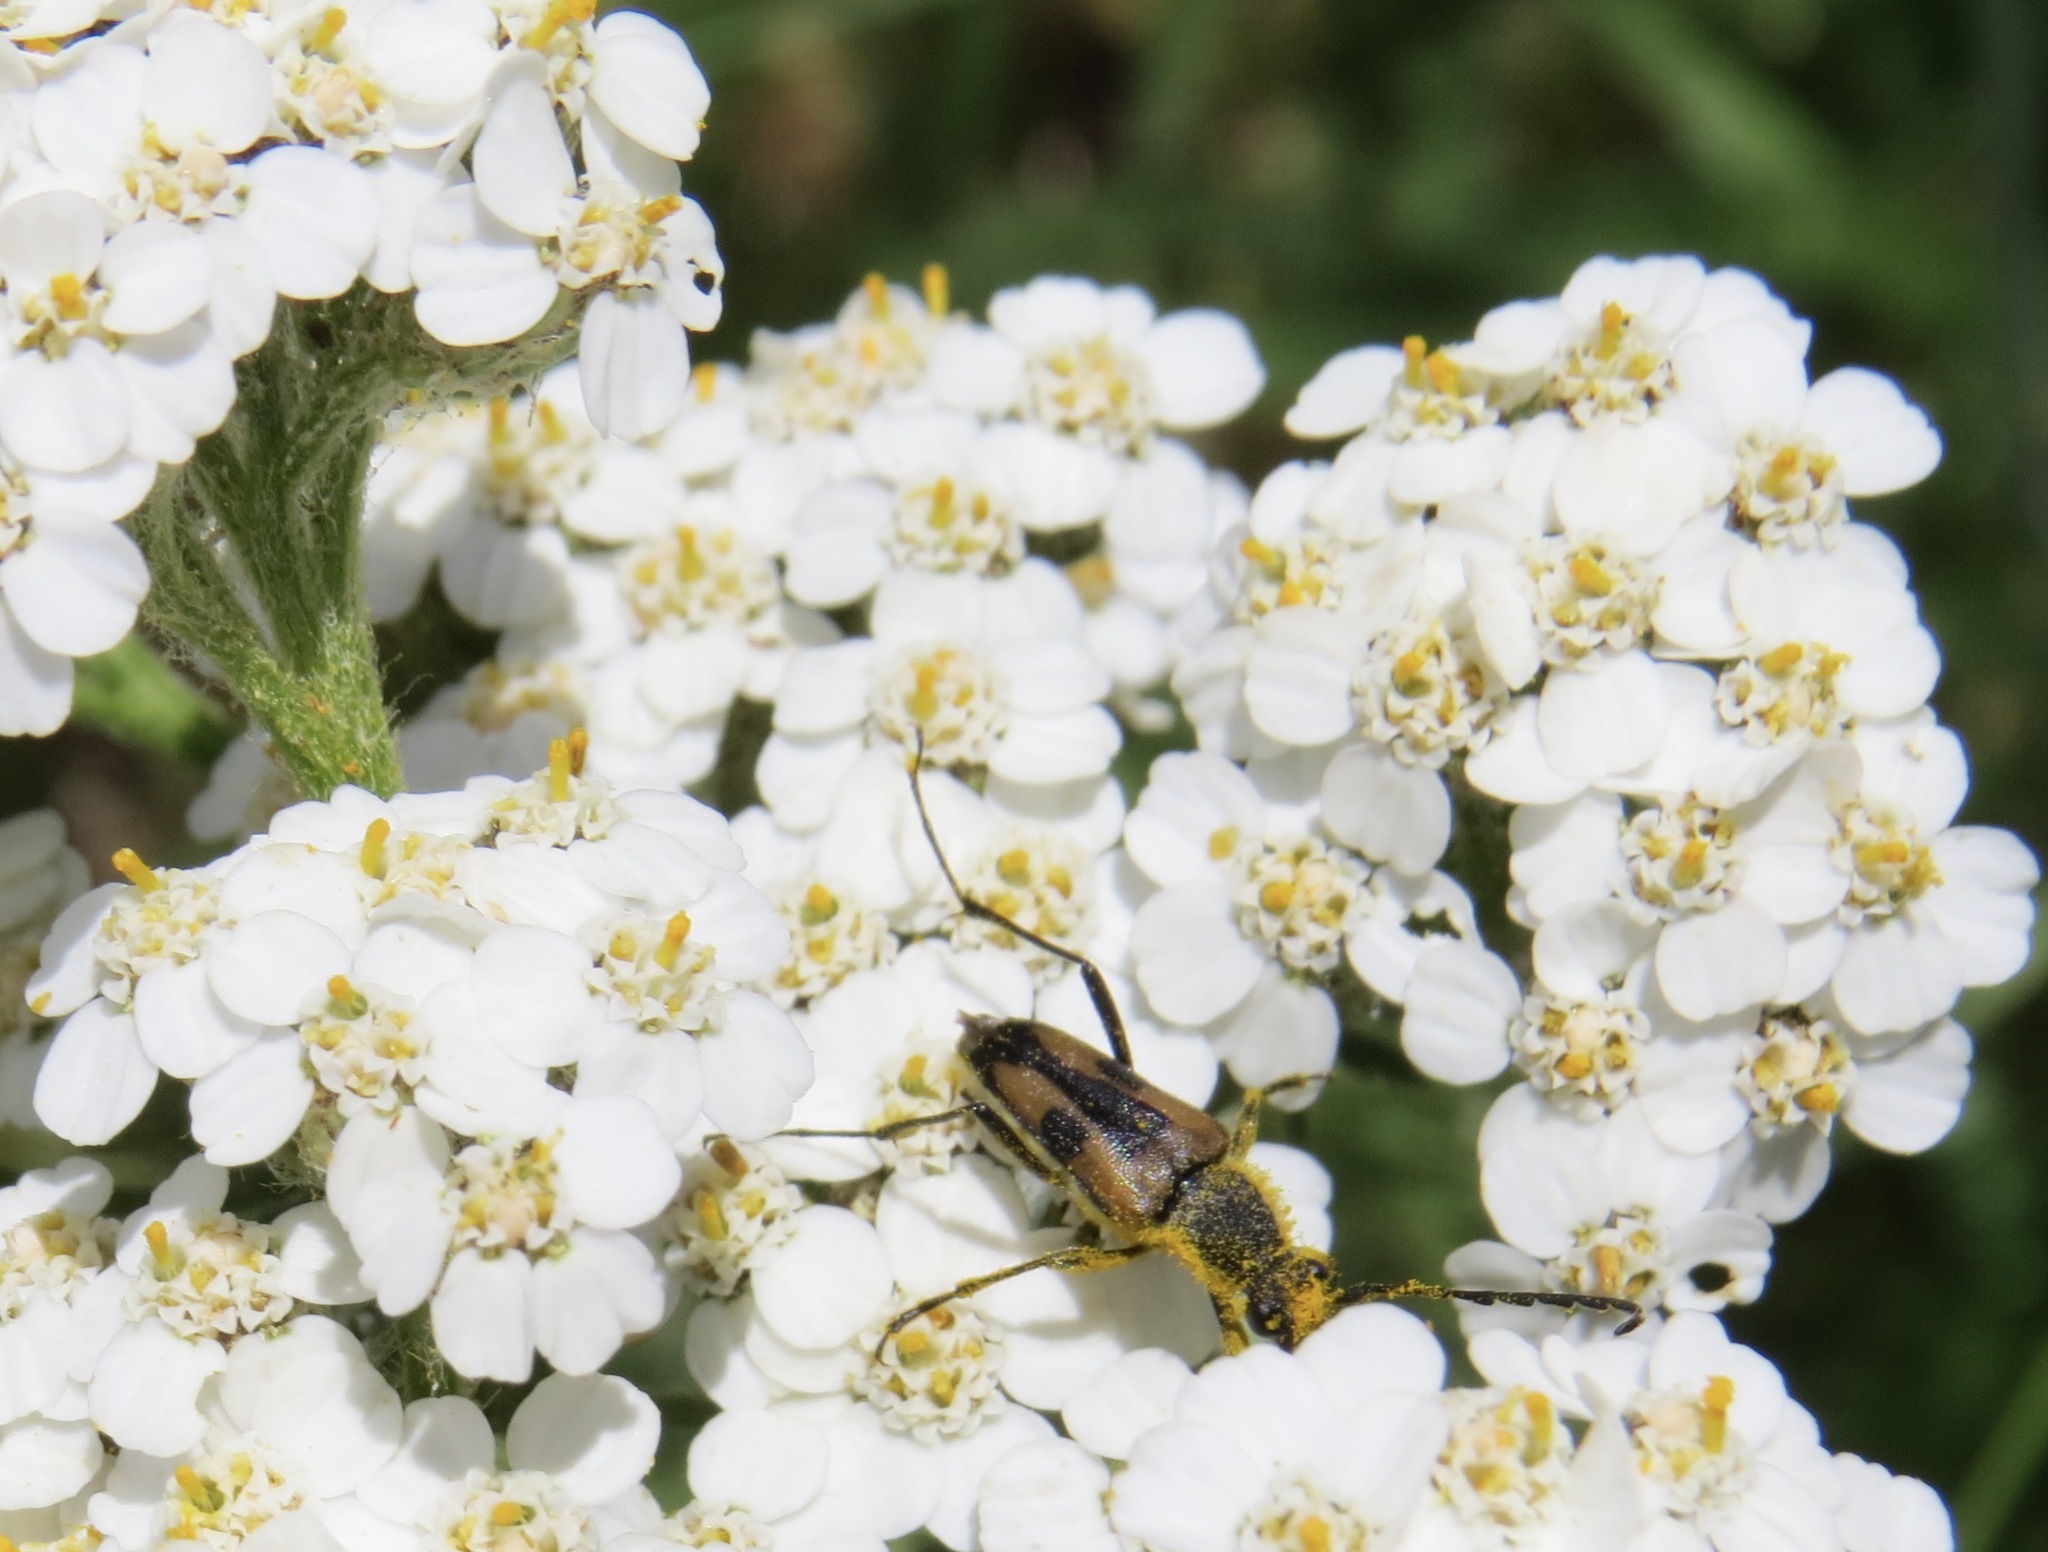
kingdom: Animalia
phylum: Arthropoda
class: Insecta
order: Coleoptera
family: Cerambycidae
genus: Anastrangalia
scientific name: Anastrangalia laetifica
